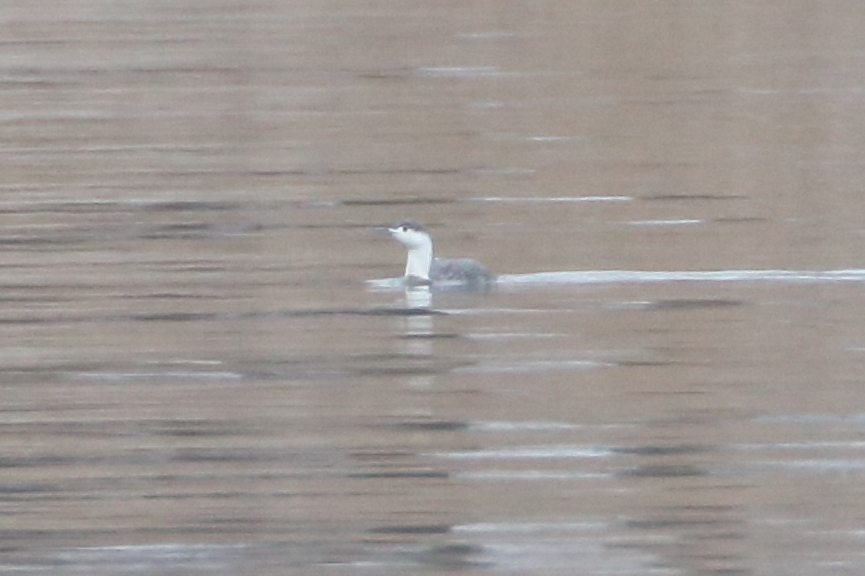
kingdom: Animalia
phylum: Chordata
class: Aves
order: Gaviiformes
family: Gaviidae
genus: Gavia
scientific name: Gavia stellata
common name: Red-throated loon
